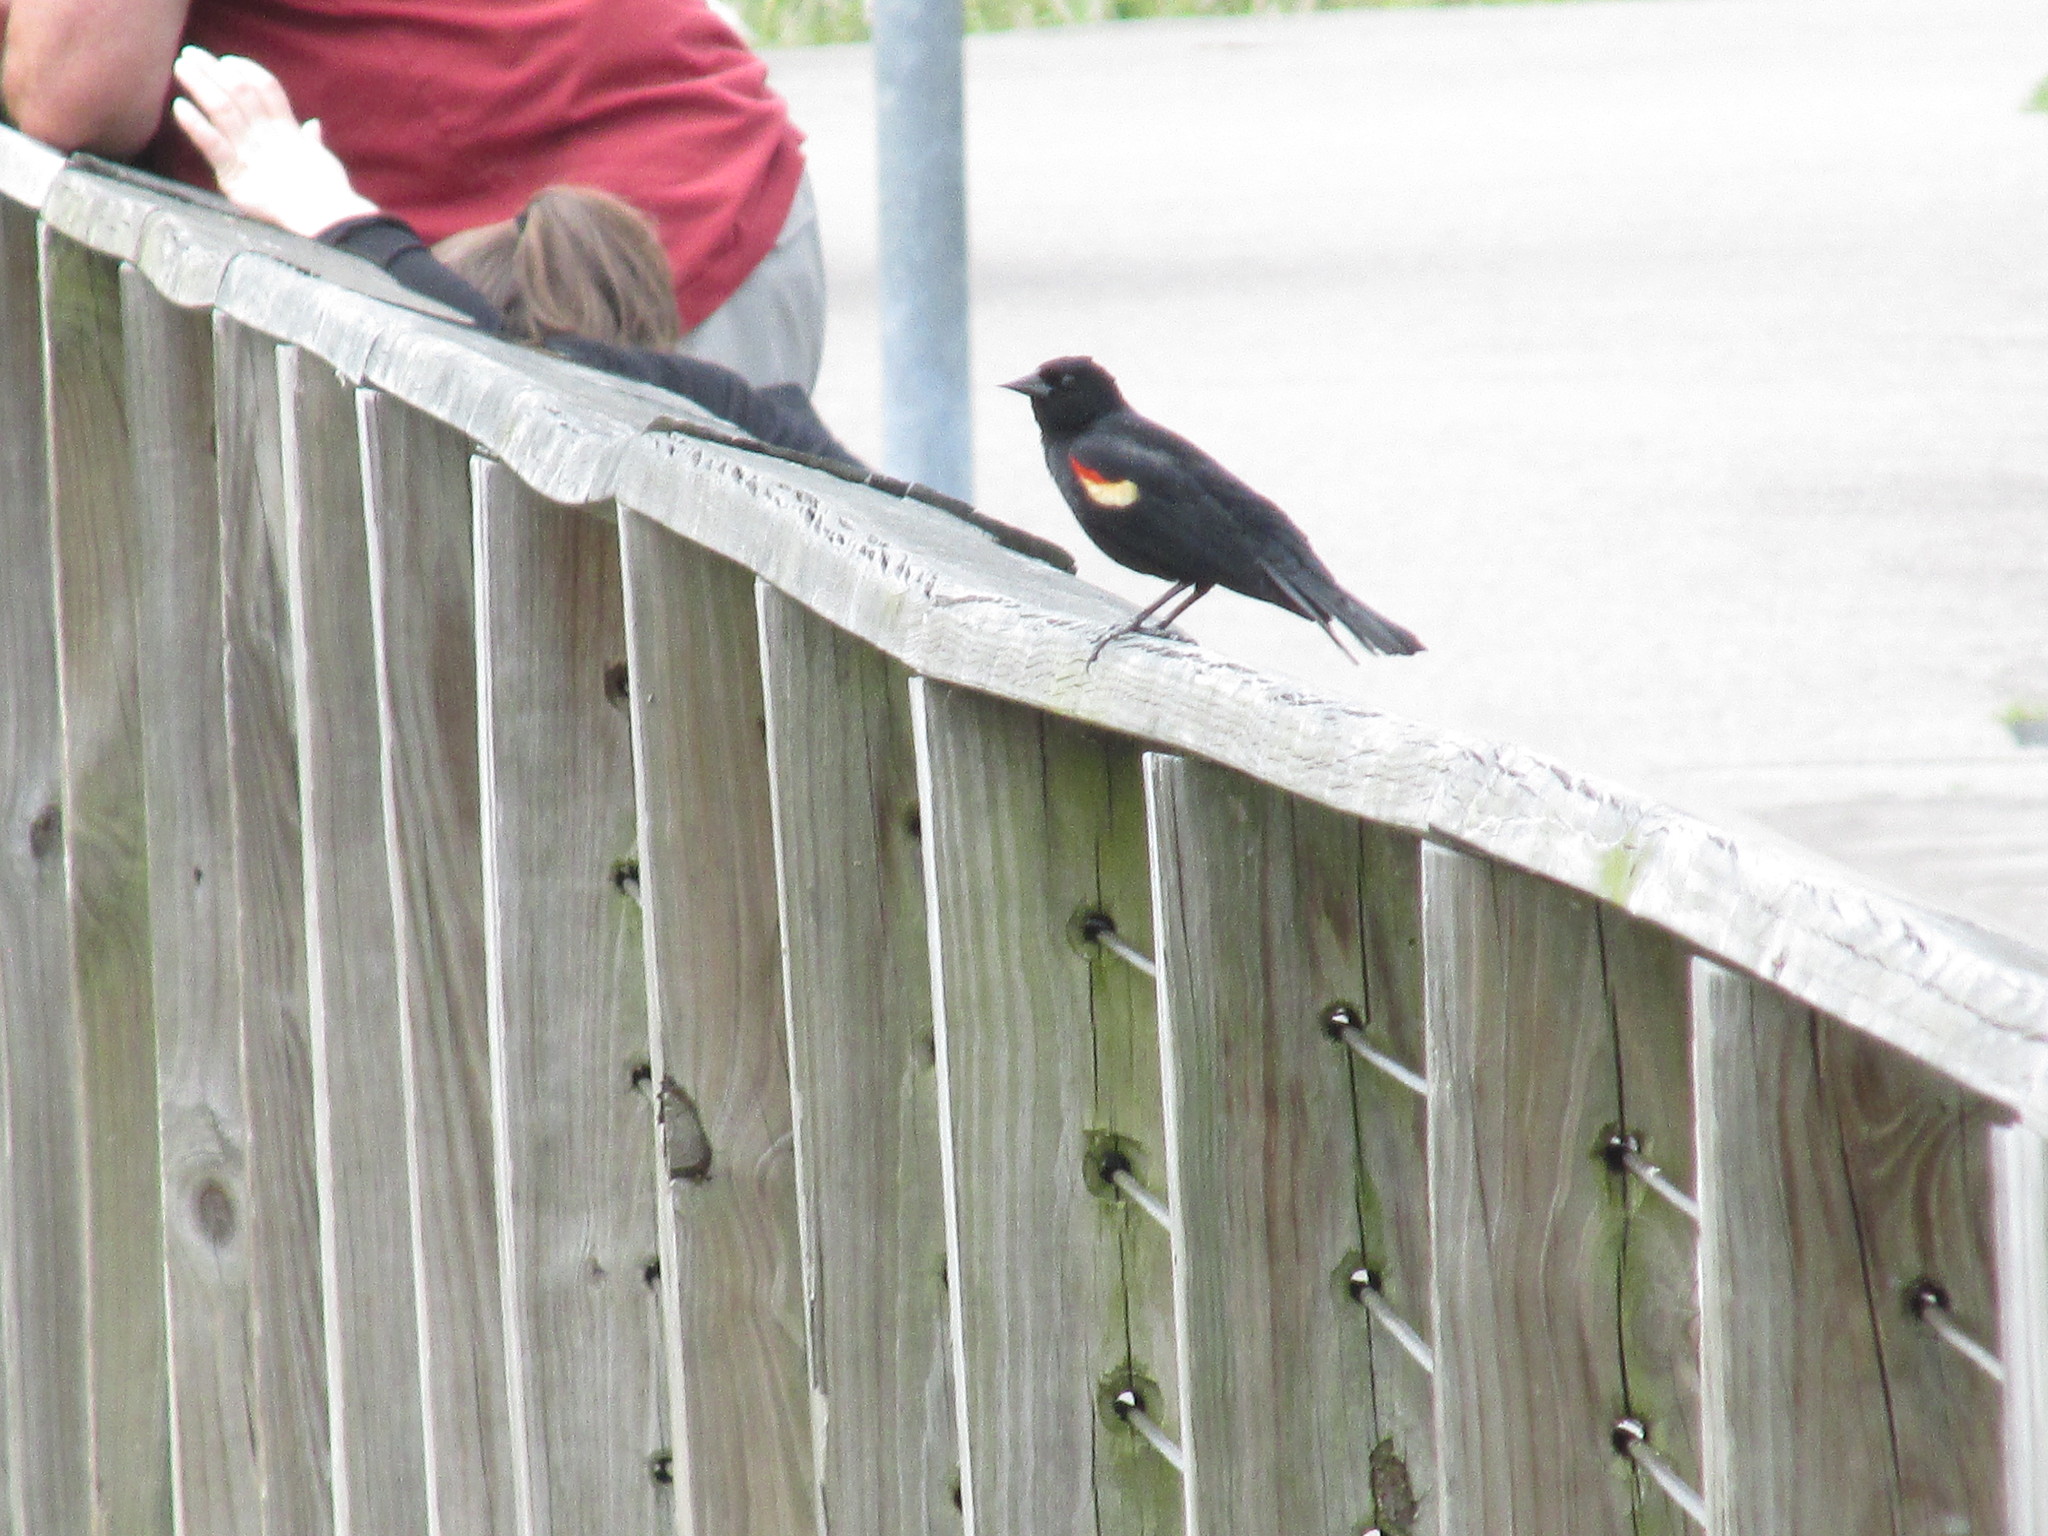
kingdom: Animalia
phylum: Chordata
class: Aves
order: Passeriformes
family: Icteridae
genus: Agelaius
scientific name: Agelaius phoeniceus
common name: Red-winged blackbird
